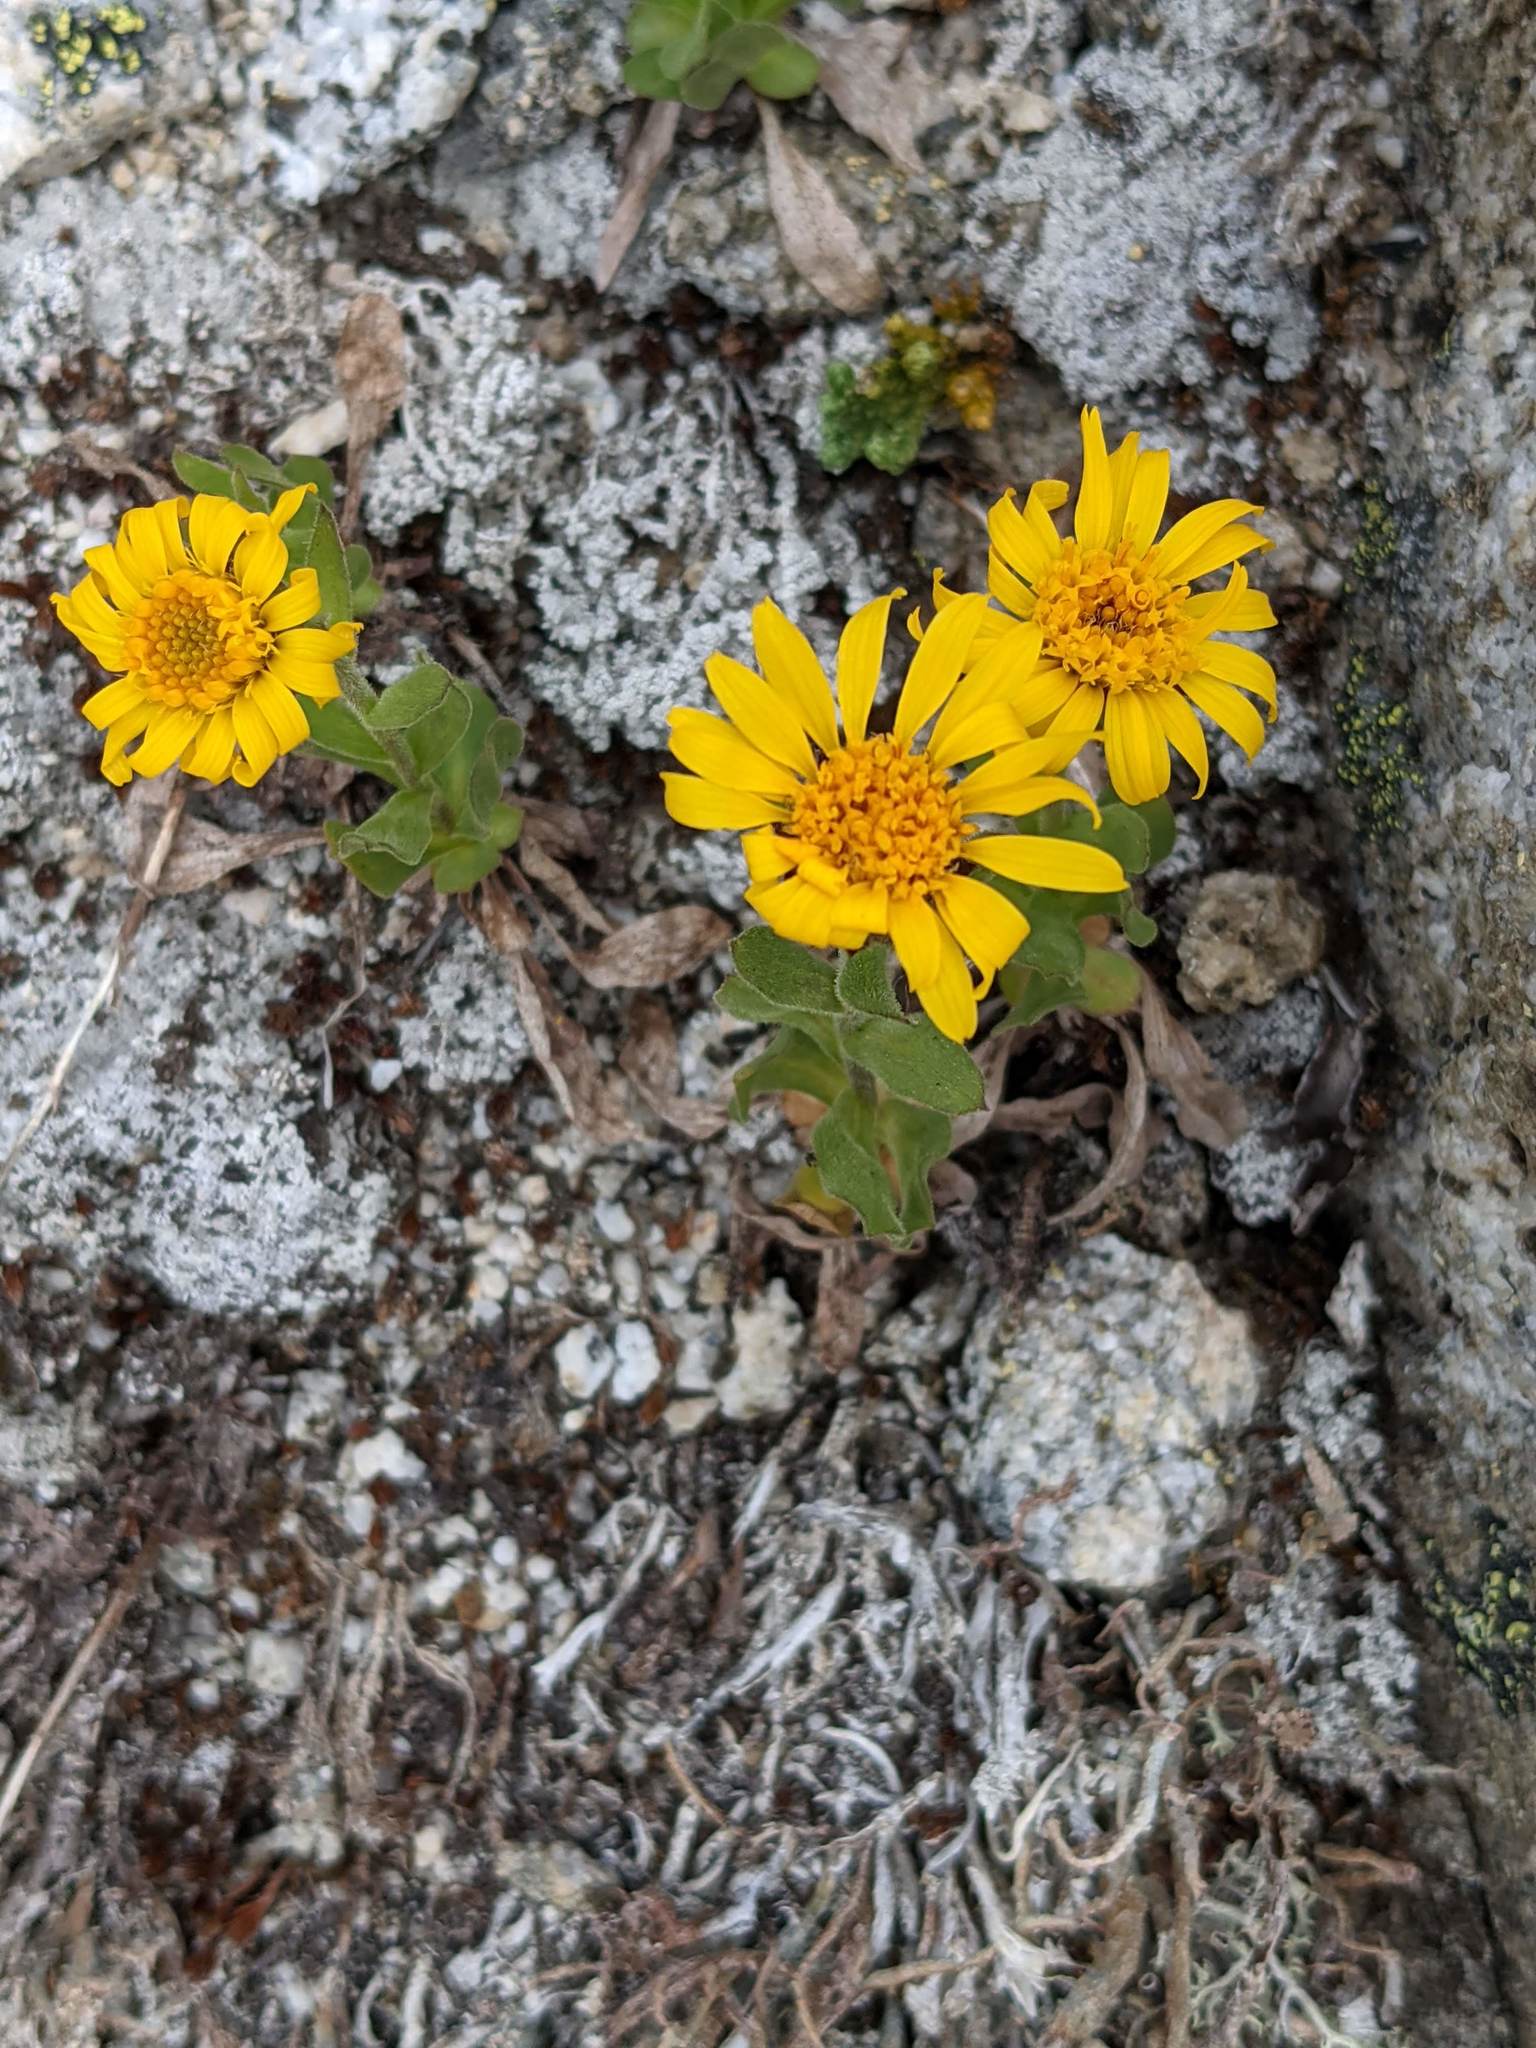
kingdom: Plantae
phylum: Tracheophyta
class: Magnoliopsida
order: Asterales
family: Asteraceae
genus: Tonestus
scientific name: Tonestus lyallii
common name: Lyall's goldenweed
